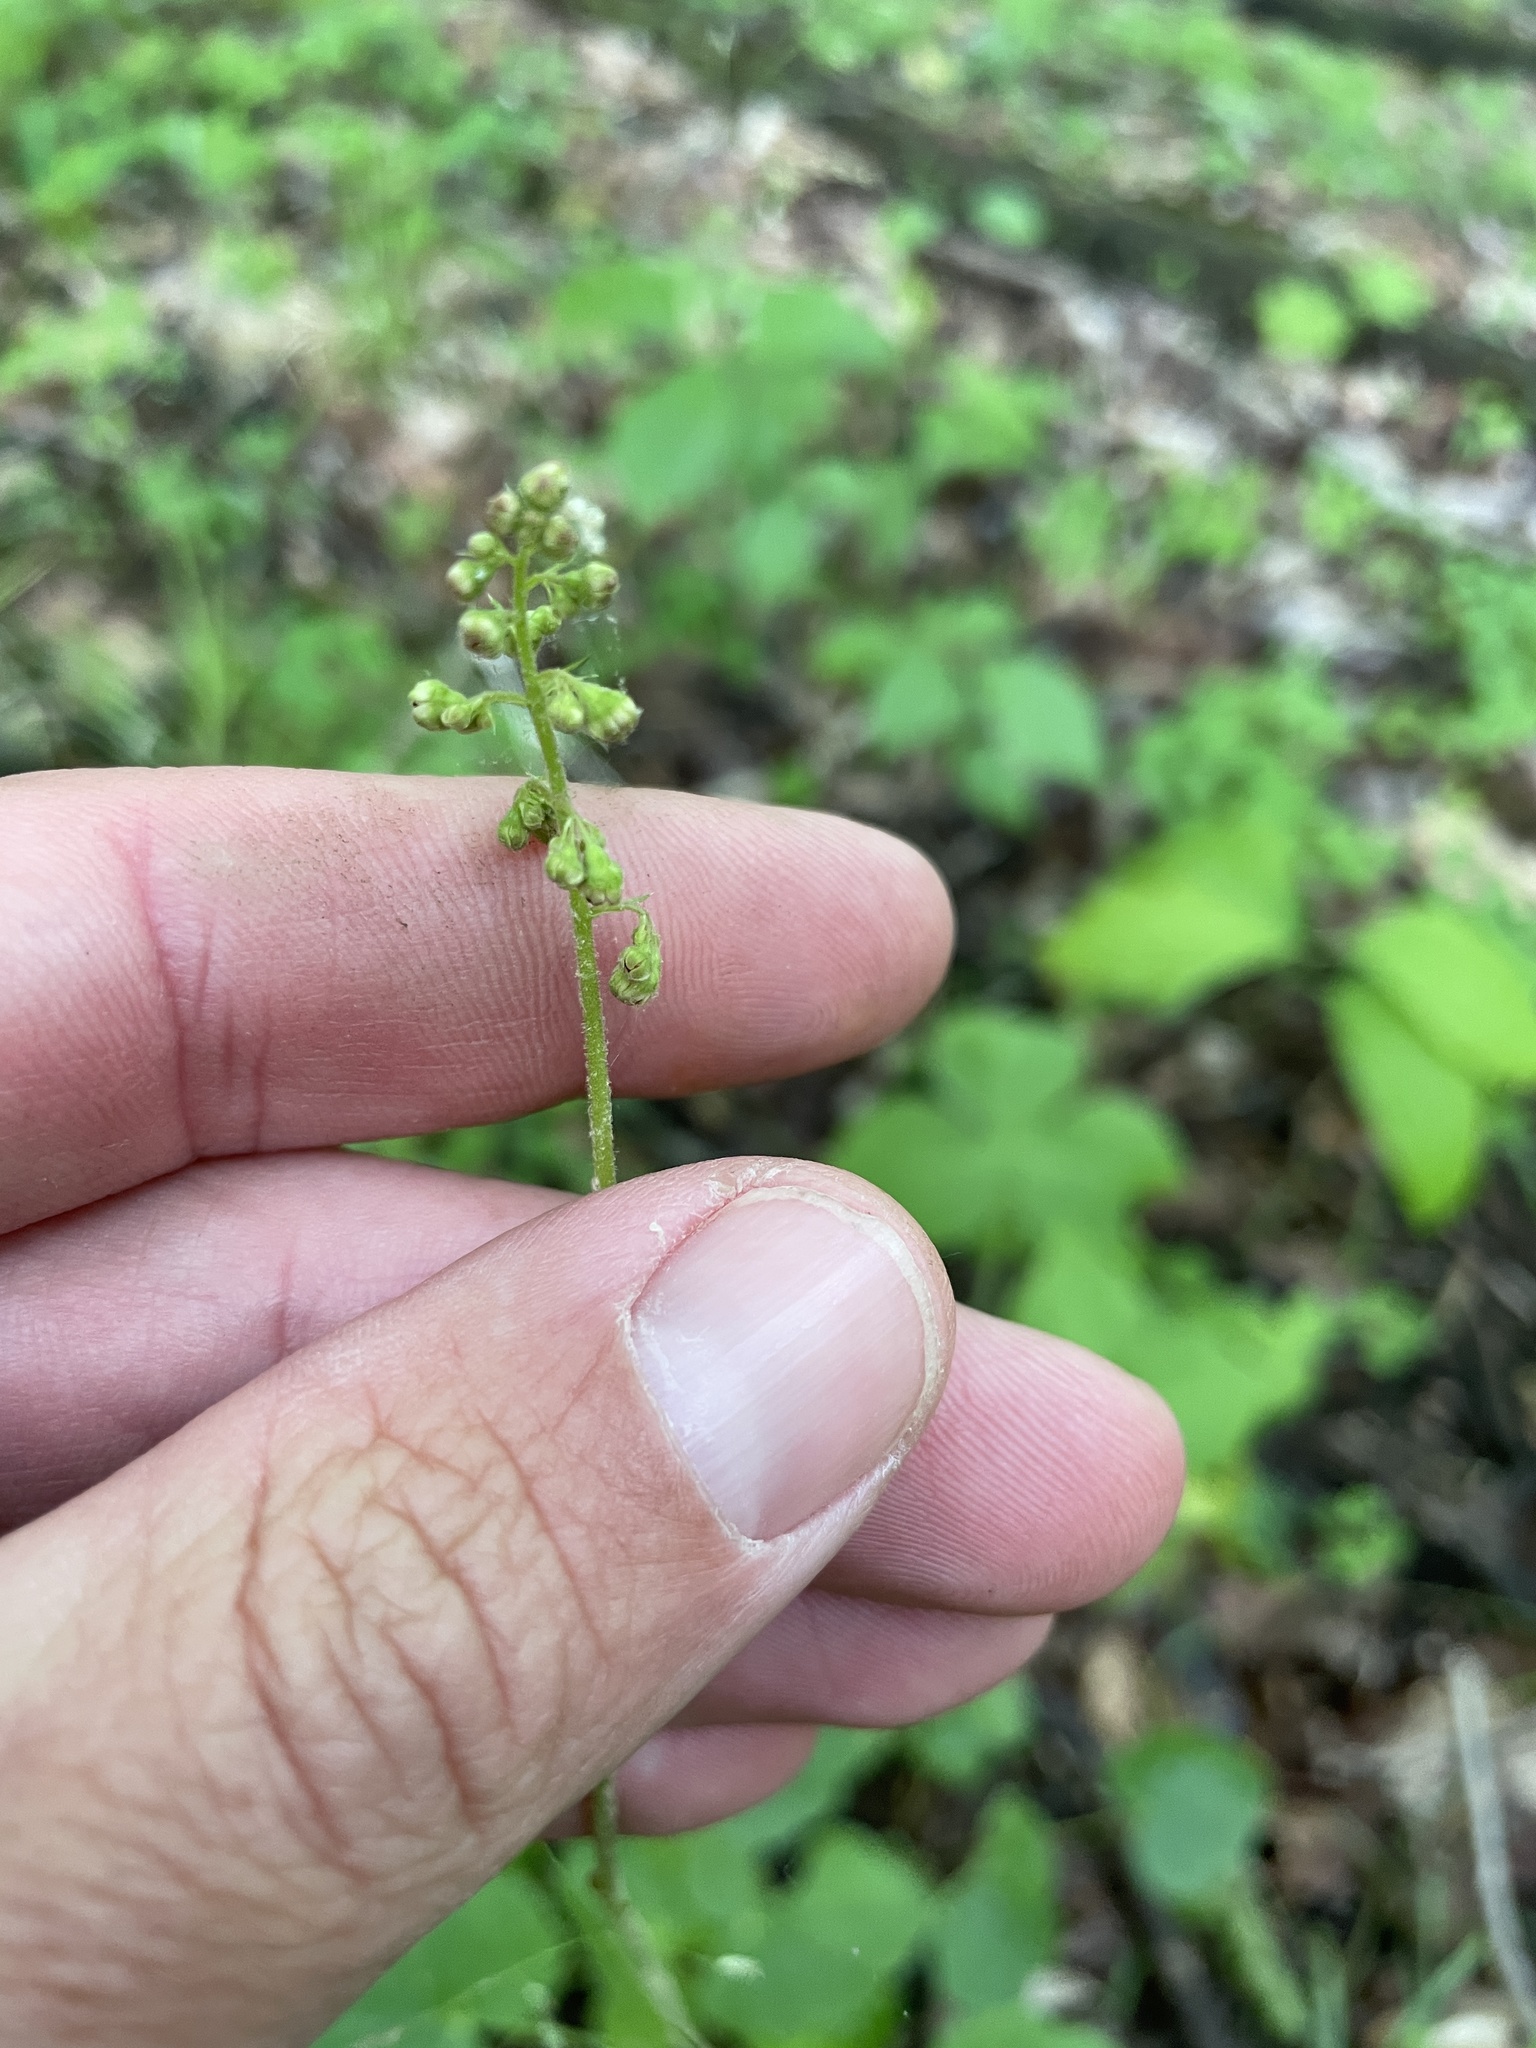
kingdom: Plantae
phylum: Tracheophyta
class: Magnoliopsida
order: Saxifragales
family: Saxifragaceae
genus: Heuchera
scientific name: Heuchera americana
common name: Alumroot
